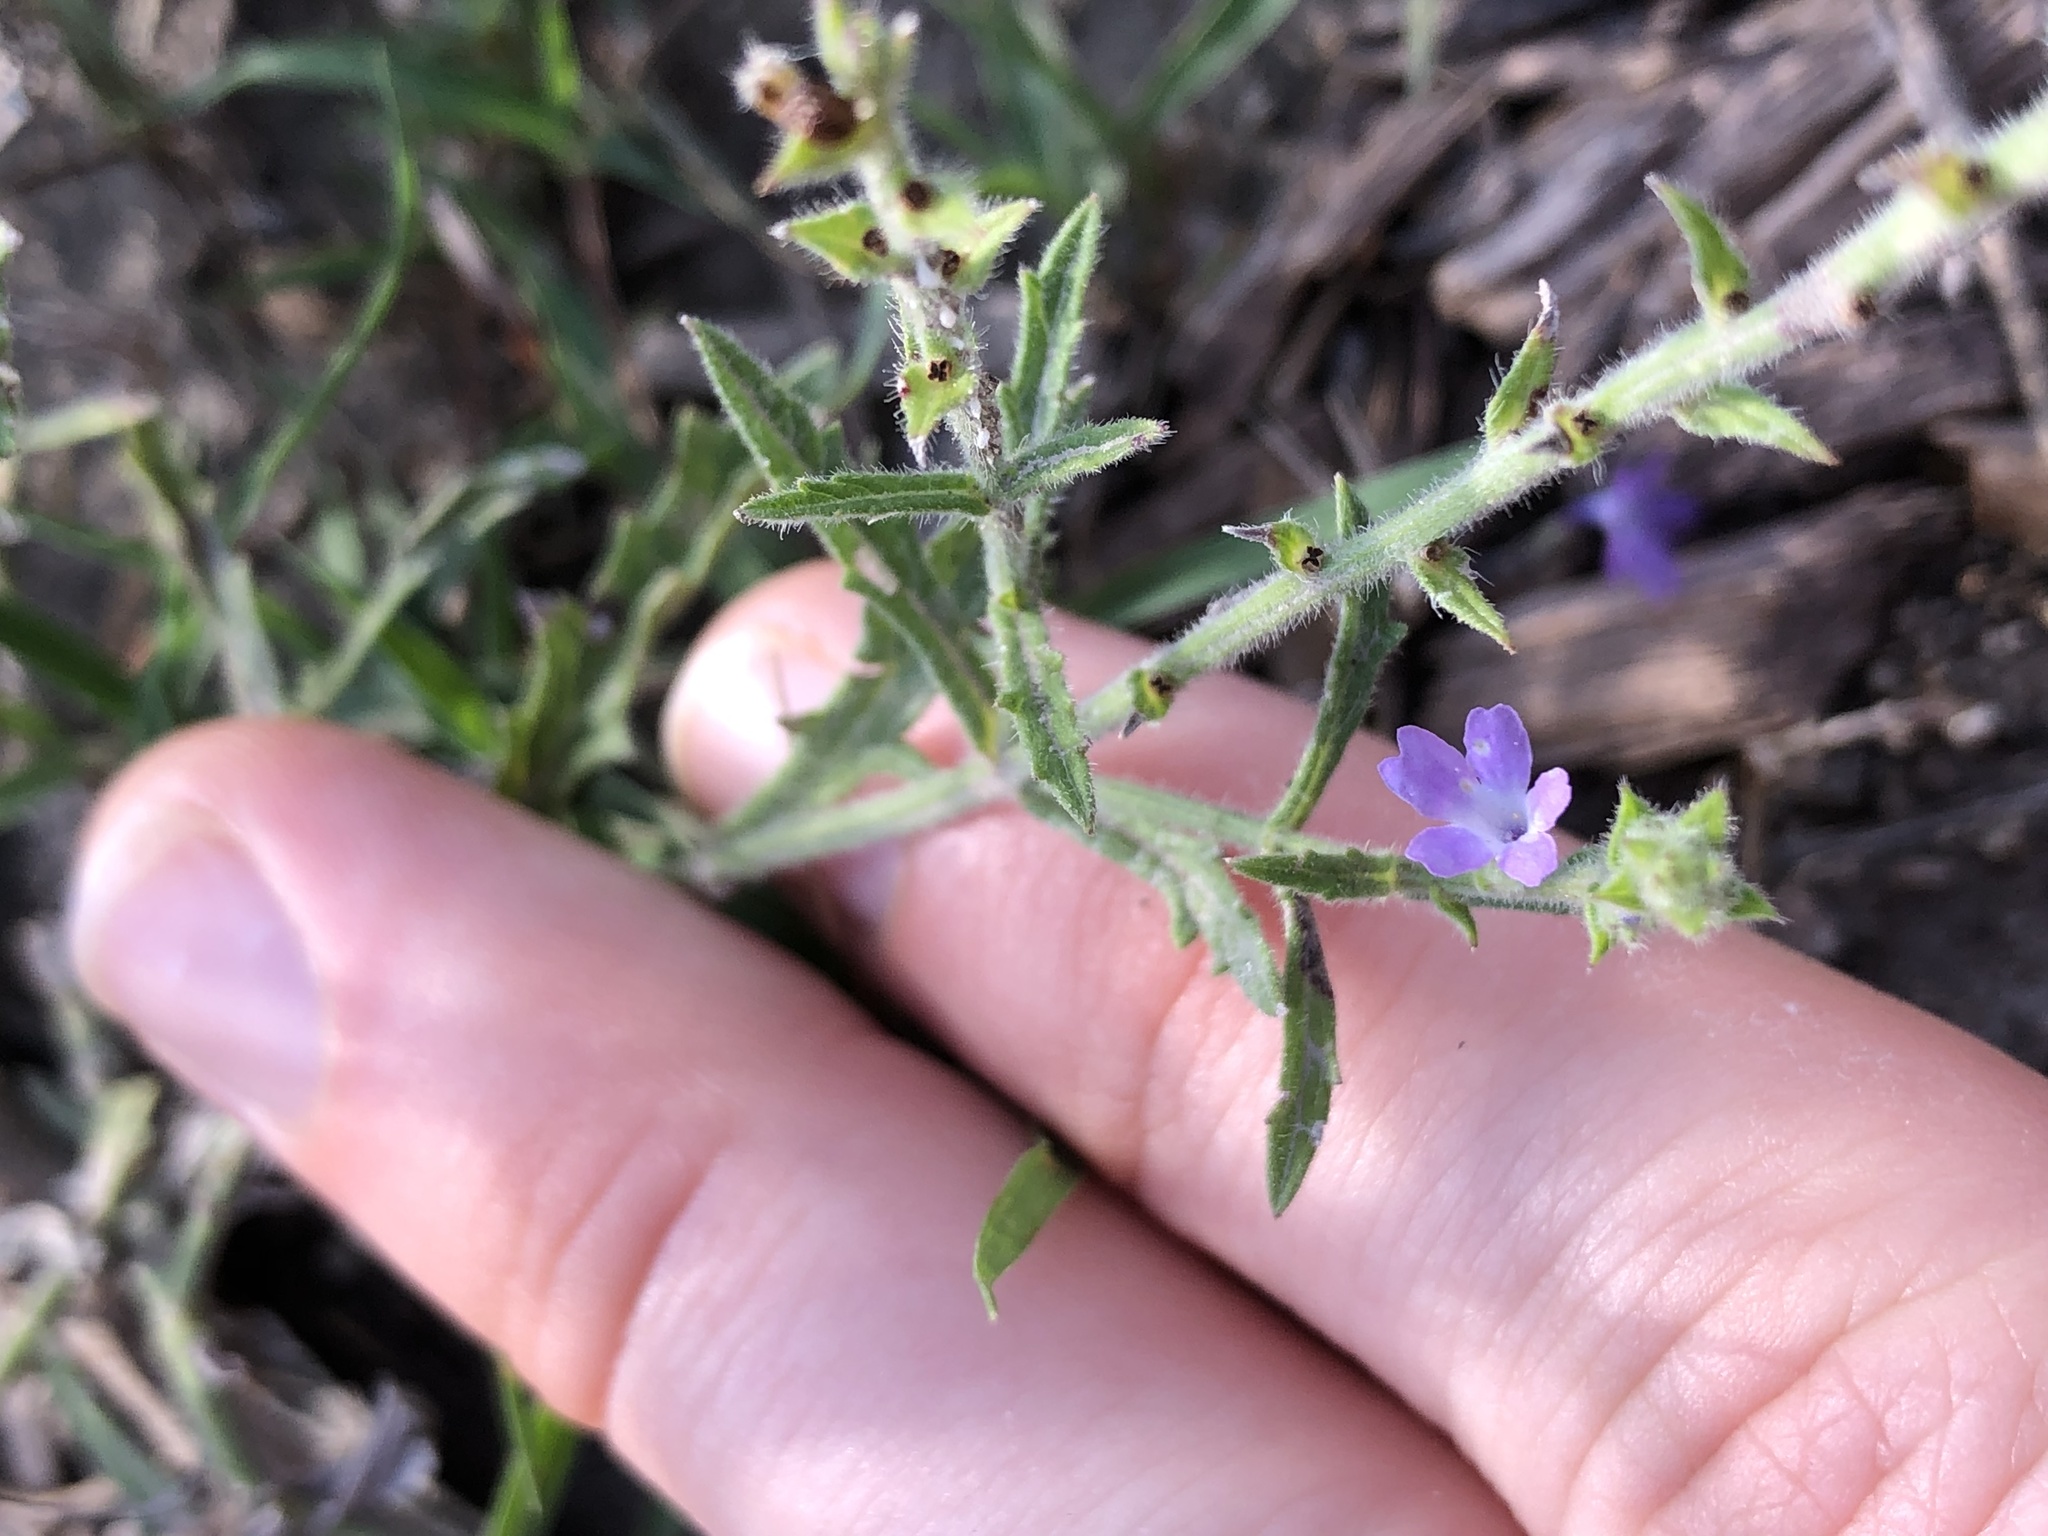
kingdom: Plantae
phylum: Tracheophyta
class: Magnoliopsida
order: Lamiales
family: Verbenaceae
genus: Verbena
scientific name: Verbena canescens
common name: Gray vervain
